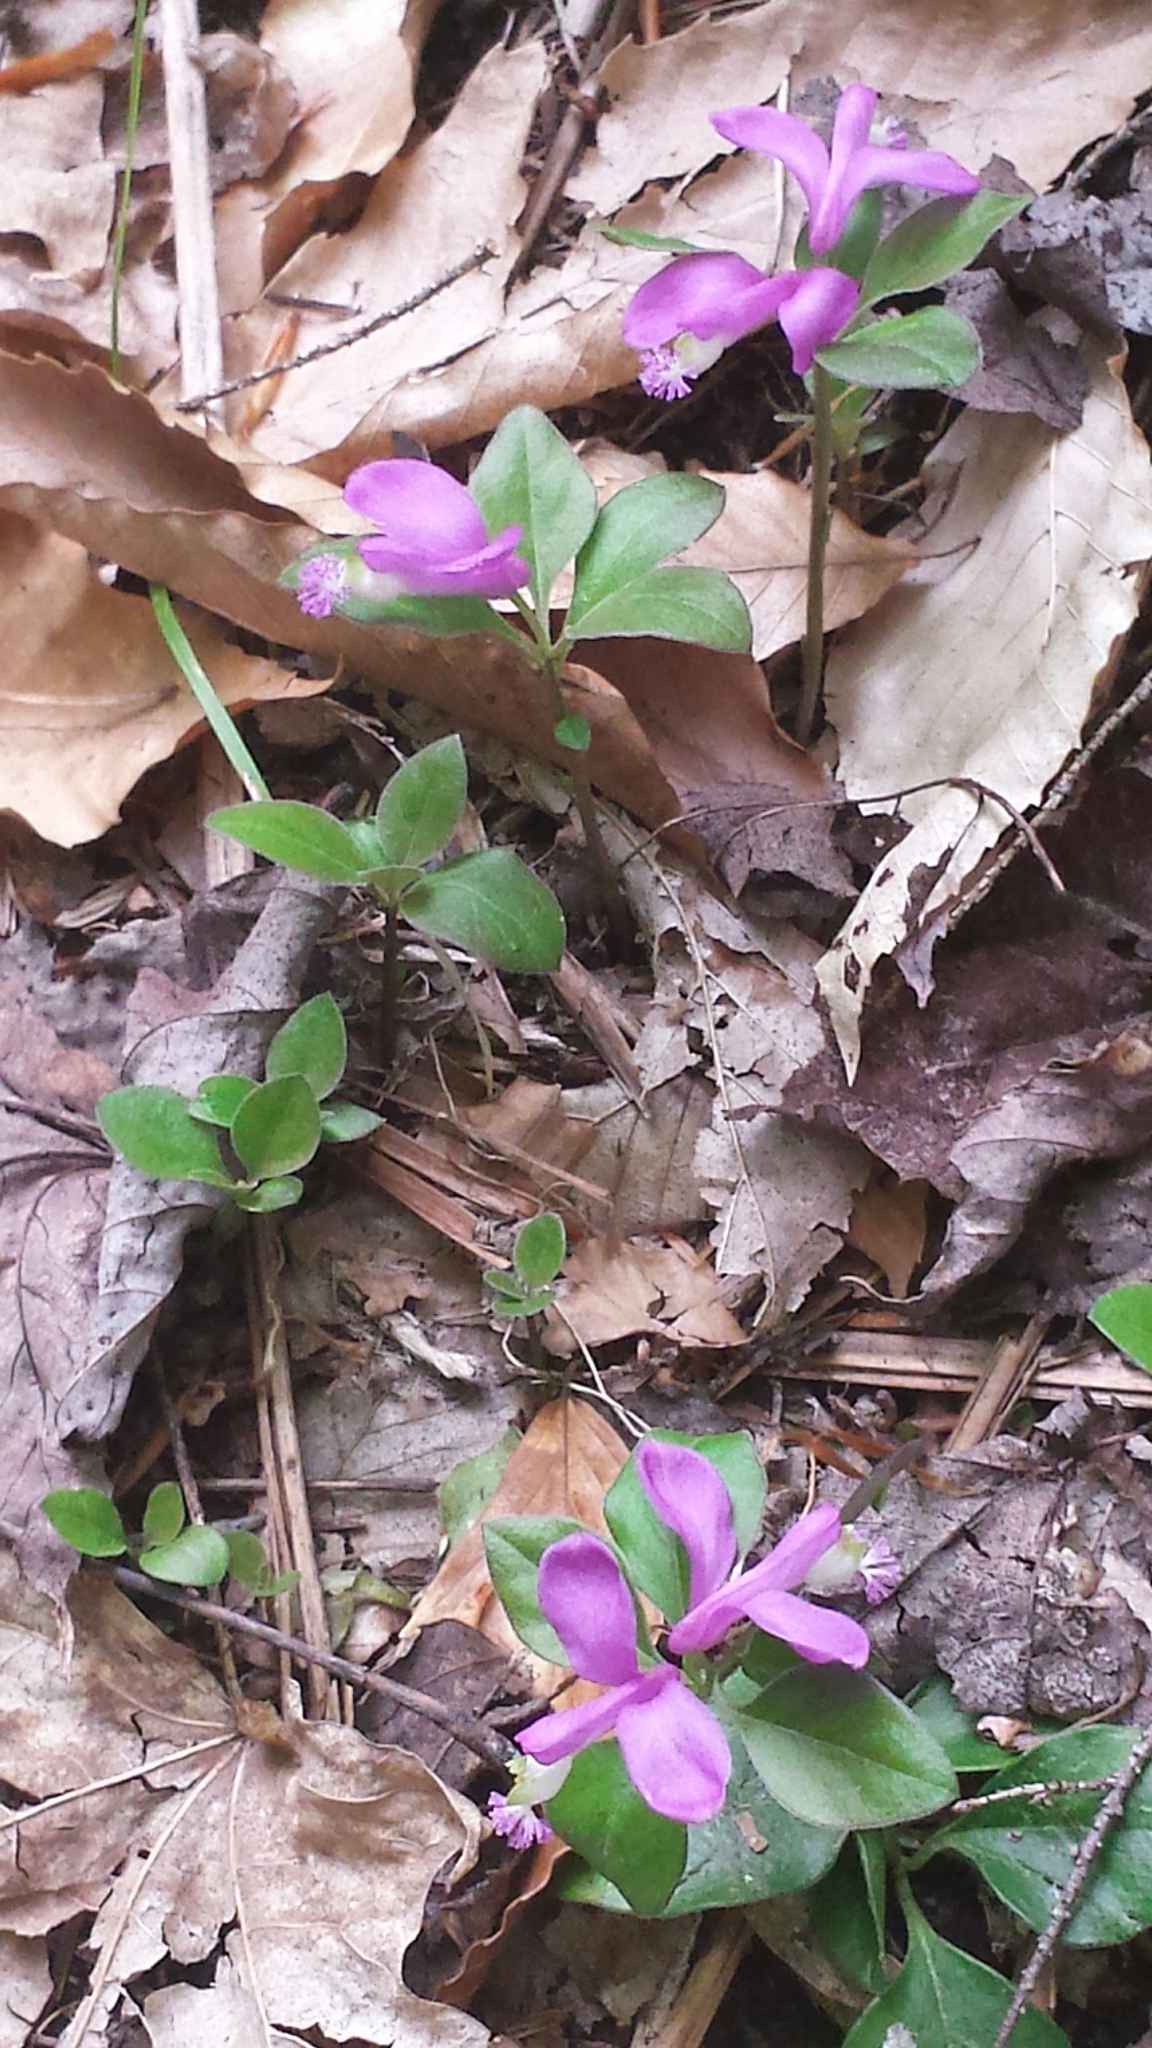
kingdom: Plantae
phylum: Tracheophyta
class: Magnoliopsida
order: Fabales
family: Polygalaceae
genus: Polygaloides
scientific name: Polygaloides paucifolia
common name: Bird-on-the-wing
